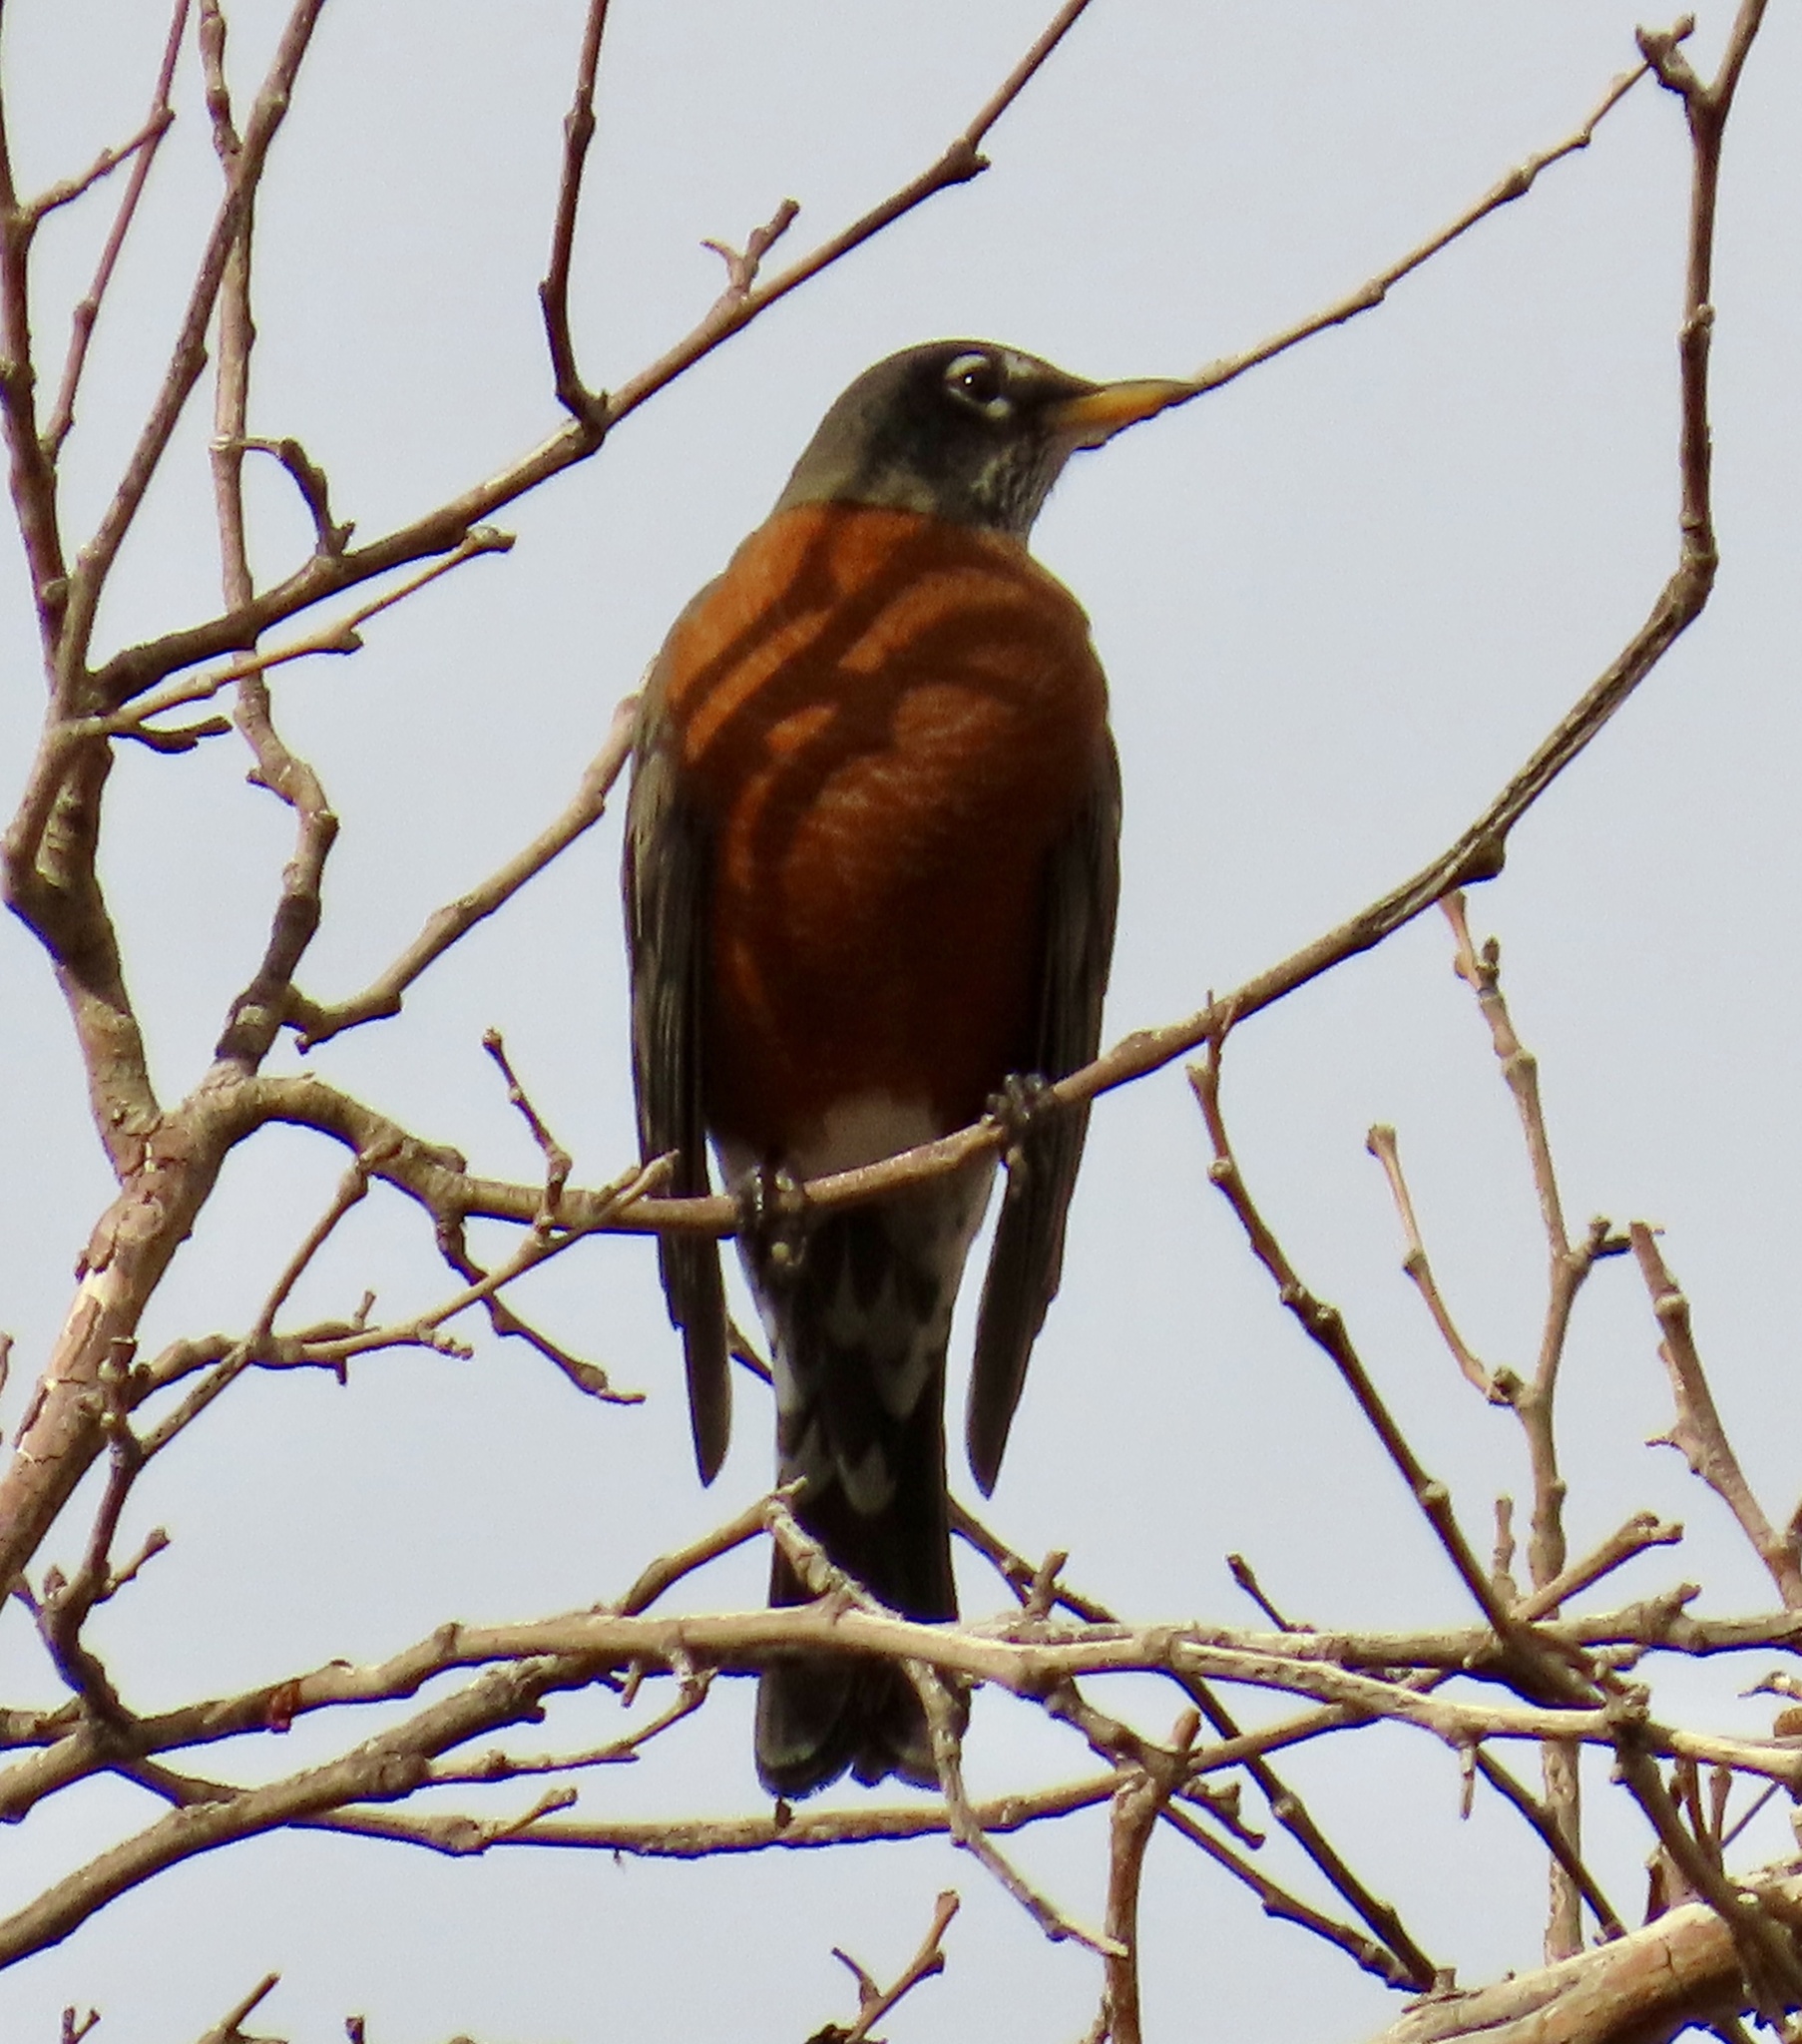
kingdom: Animalia
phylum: Chordata
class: Aves
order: Passeriformes
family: Turdidae
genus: Turdus
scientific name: Turdus migratorius
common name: American robin
